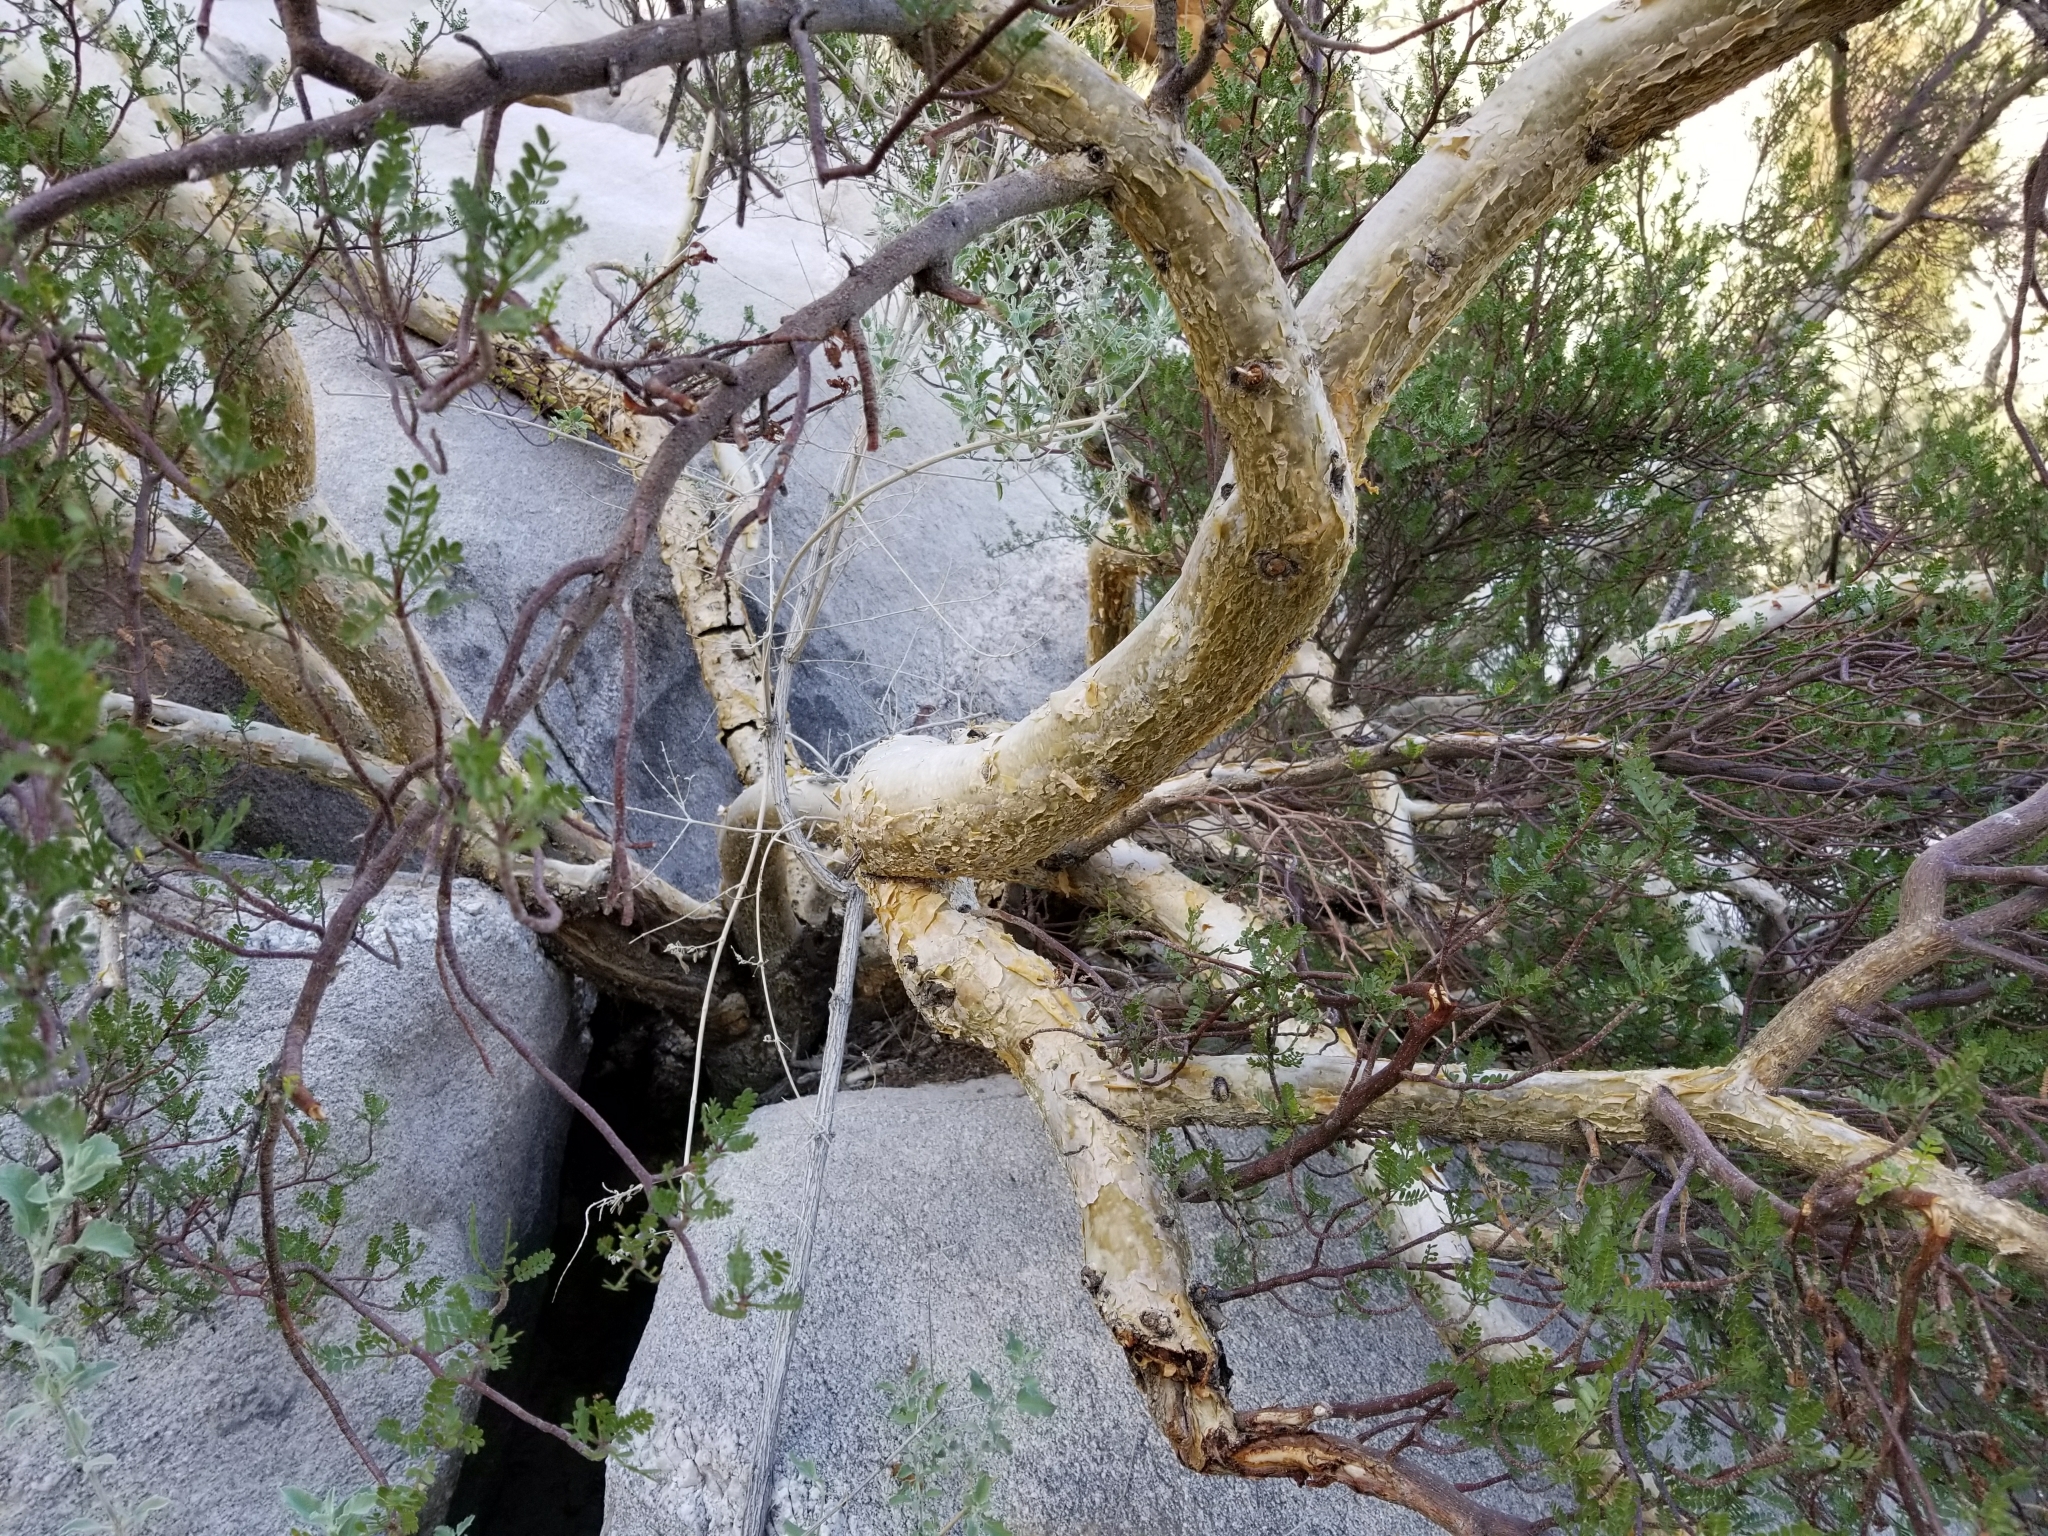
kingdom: Plantae
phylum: Tracheophyta
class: Magnoliopsida
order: Sapindales
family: Burseraceae
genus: Bursera
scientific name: Bursera microphylla
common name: Elephant tree
